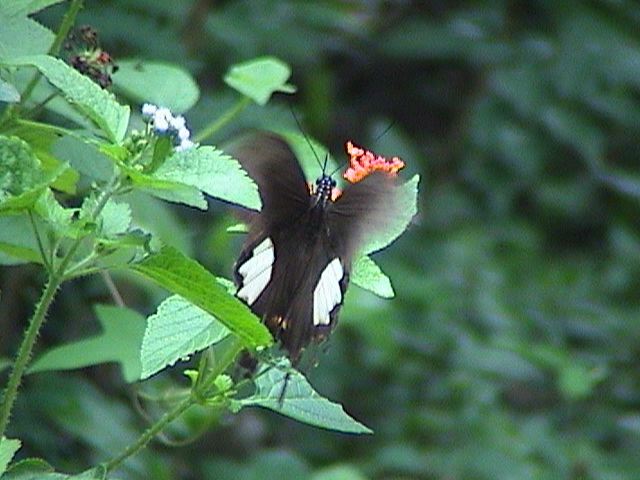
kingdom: Animalia
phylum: Arthropoda
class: Insecta
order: Lepidoptera
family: Papilionidae
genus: Papilio
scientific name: Papilio helenus
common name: Red helen
